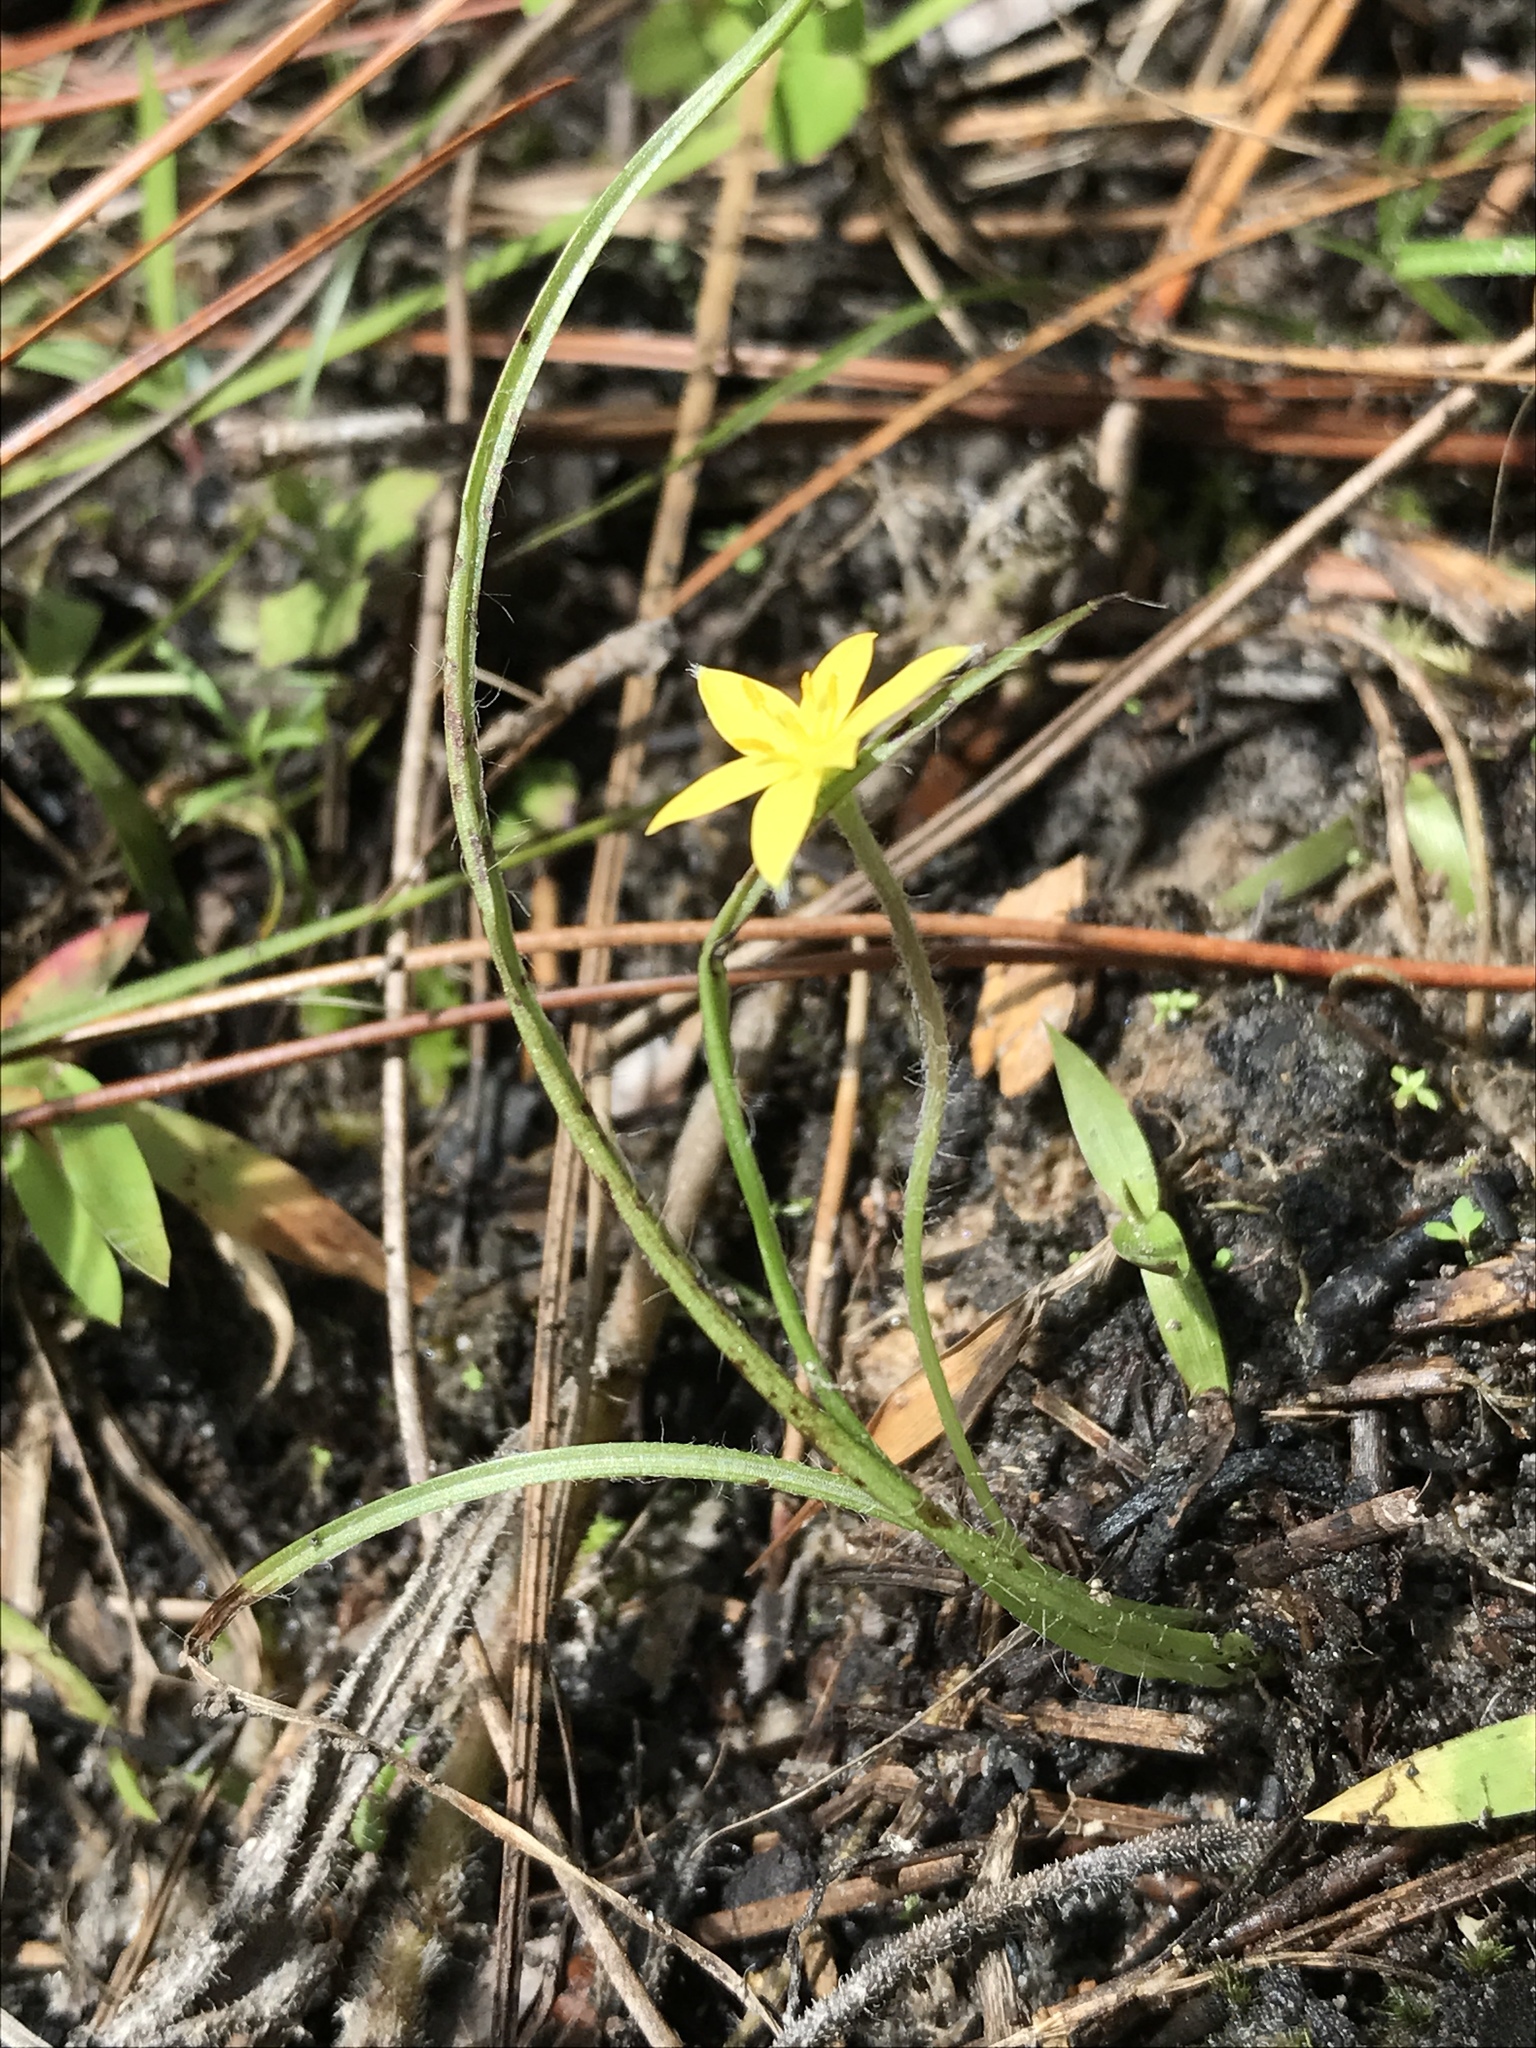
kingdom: Plantae
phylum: Tracheophyta
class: Liliopsida
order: Asparagales
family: Hypoxidaceae
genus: Hypoxis
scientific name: Hypoxis hirsuta
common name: Common goldstar
